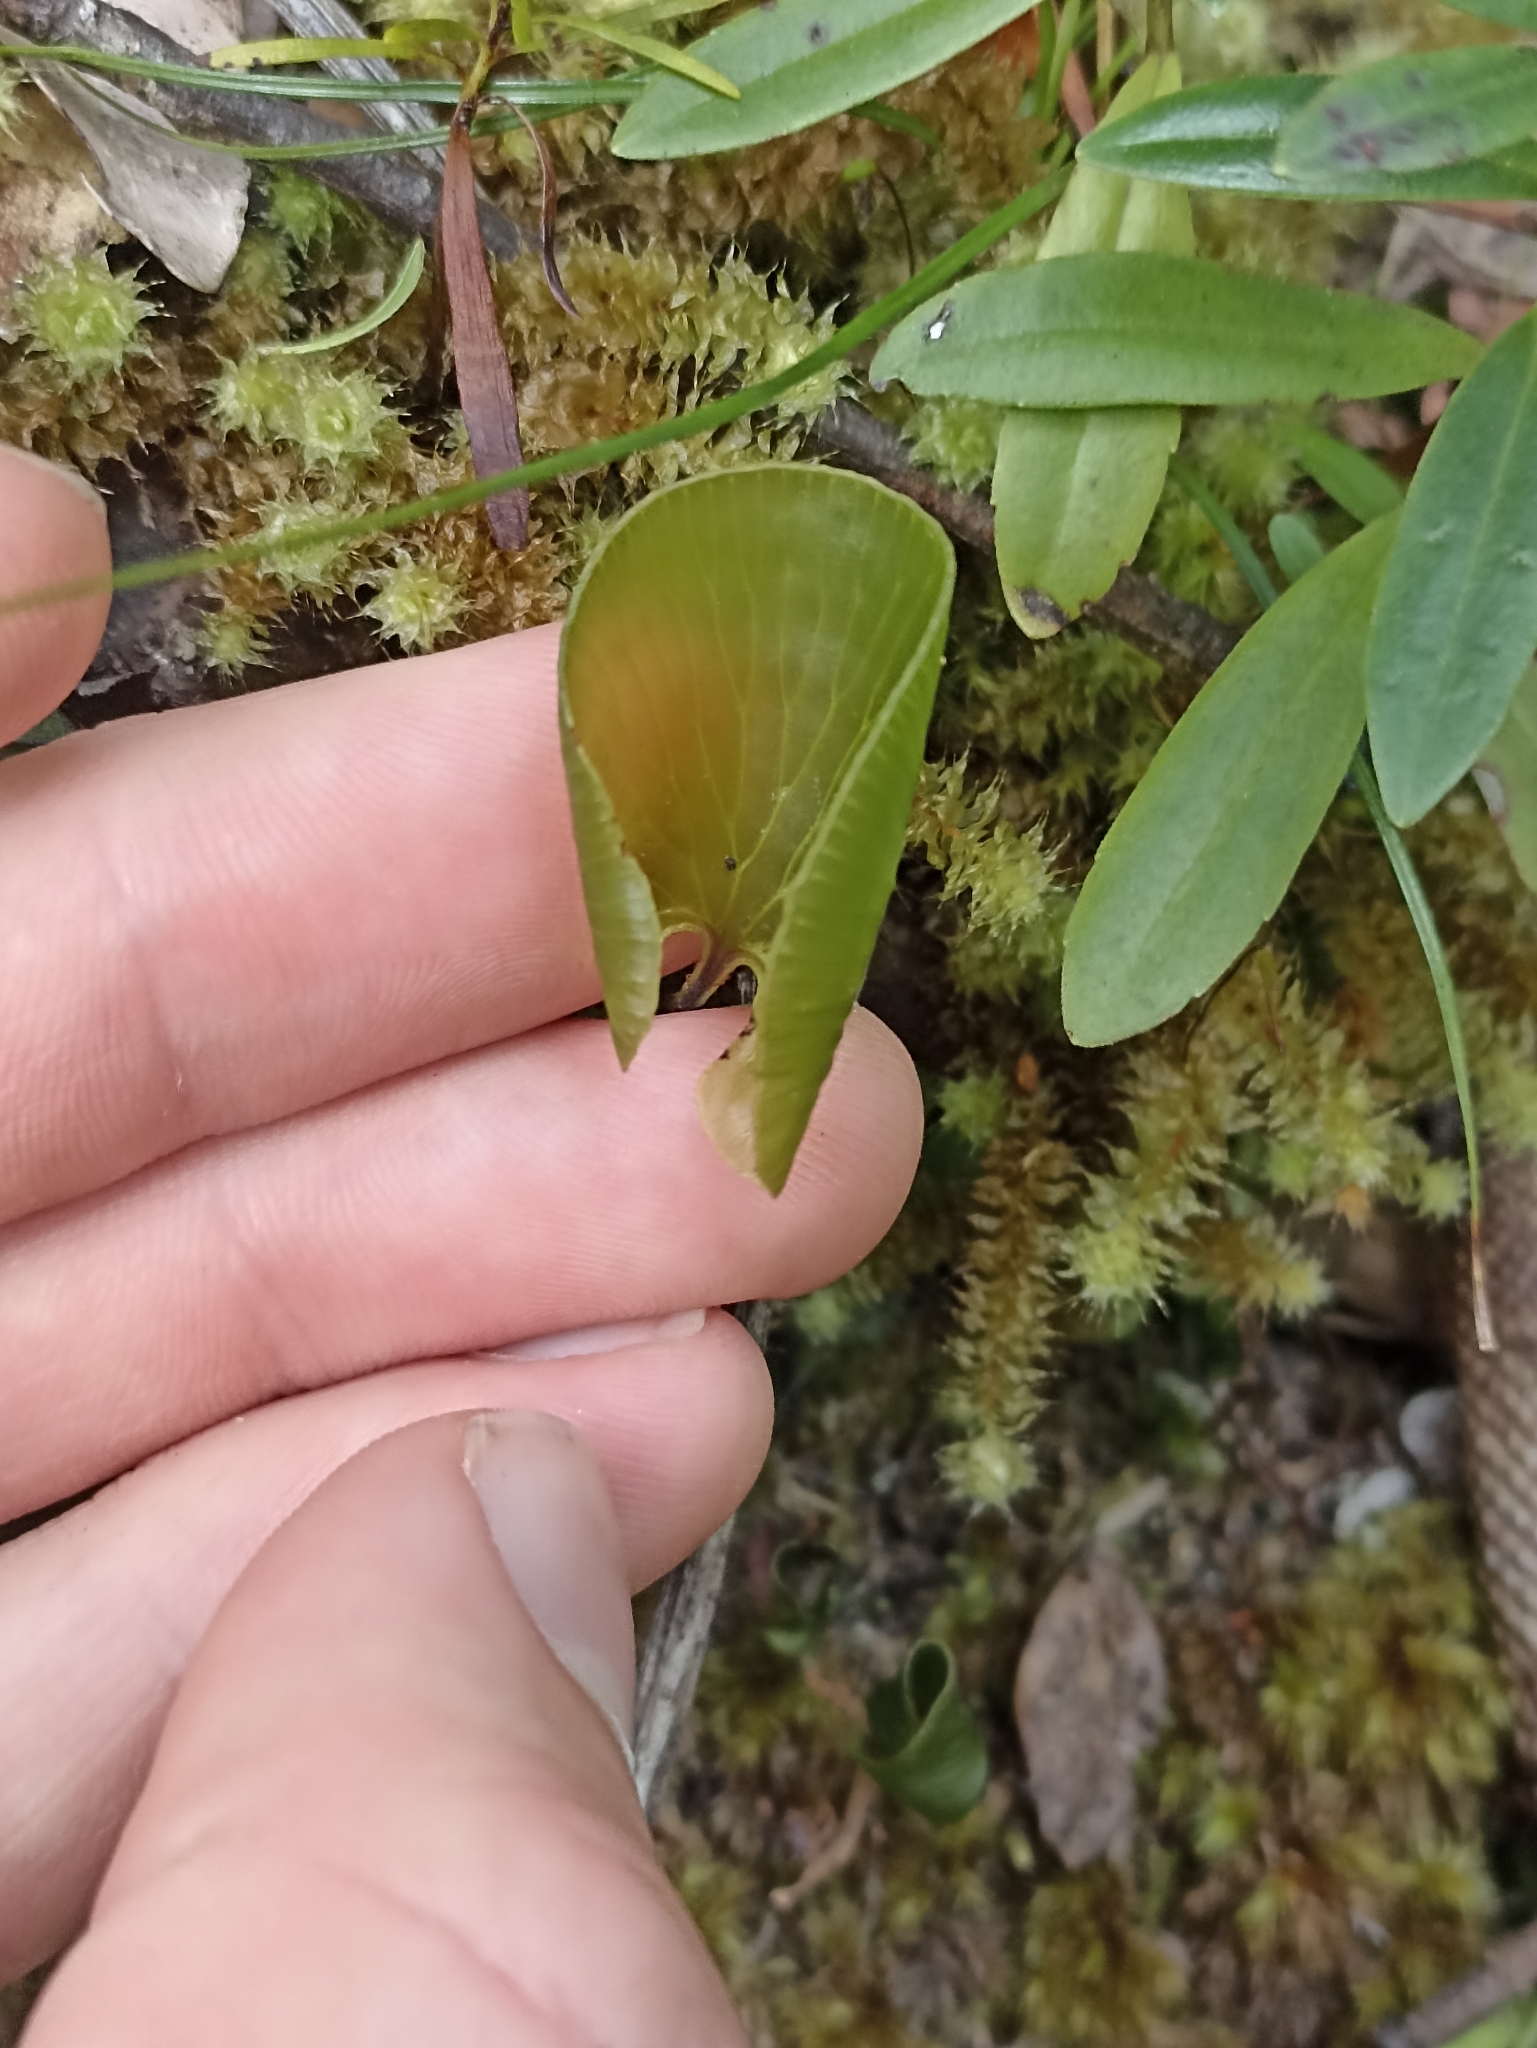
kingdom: Plantae
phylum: Tracheophyta
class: Polypodiopsida
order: Hymenophyllales
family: Hymenophyllaceae
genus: Hymenophyllum
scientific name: Hymenophyllum nephrophyllum
